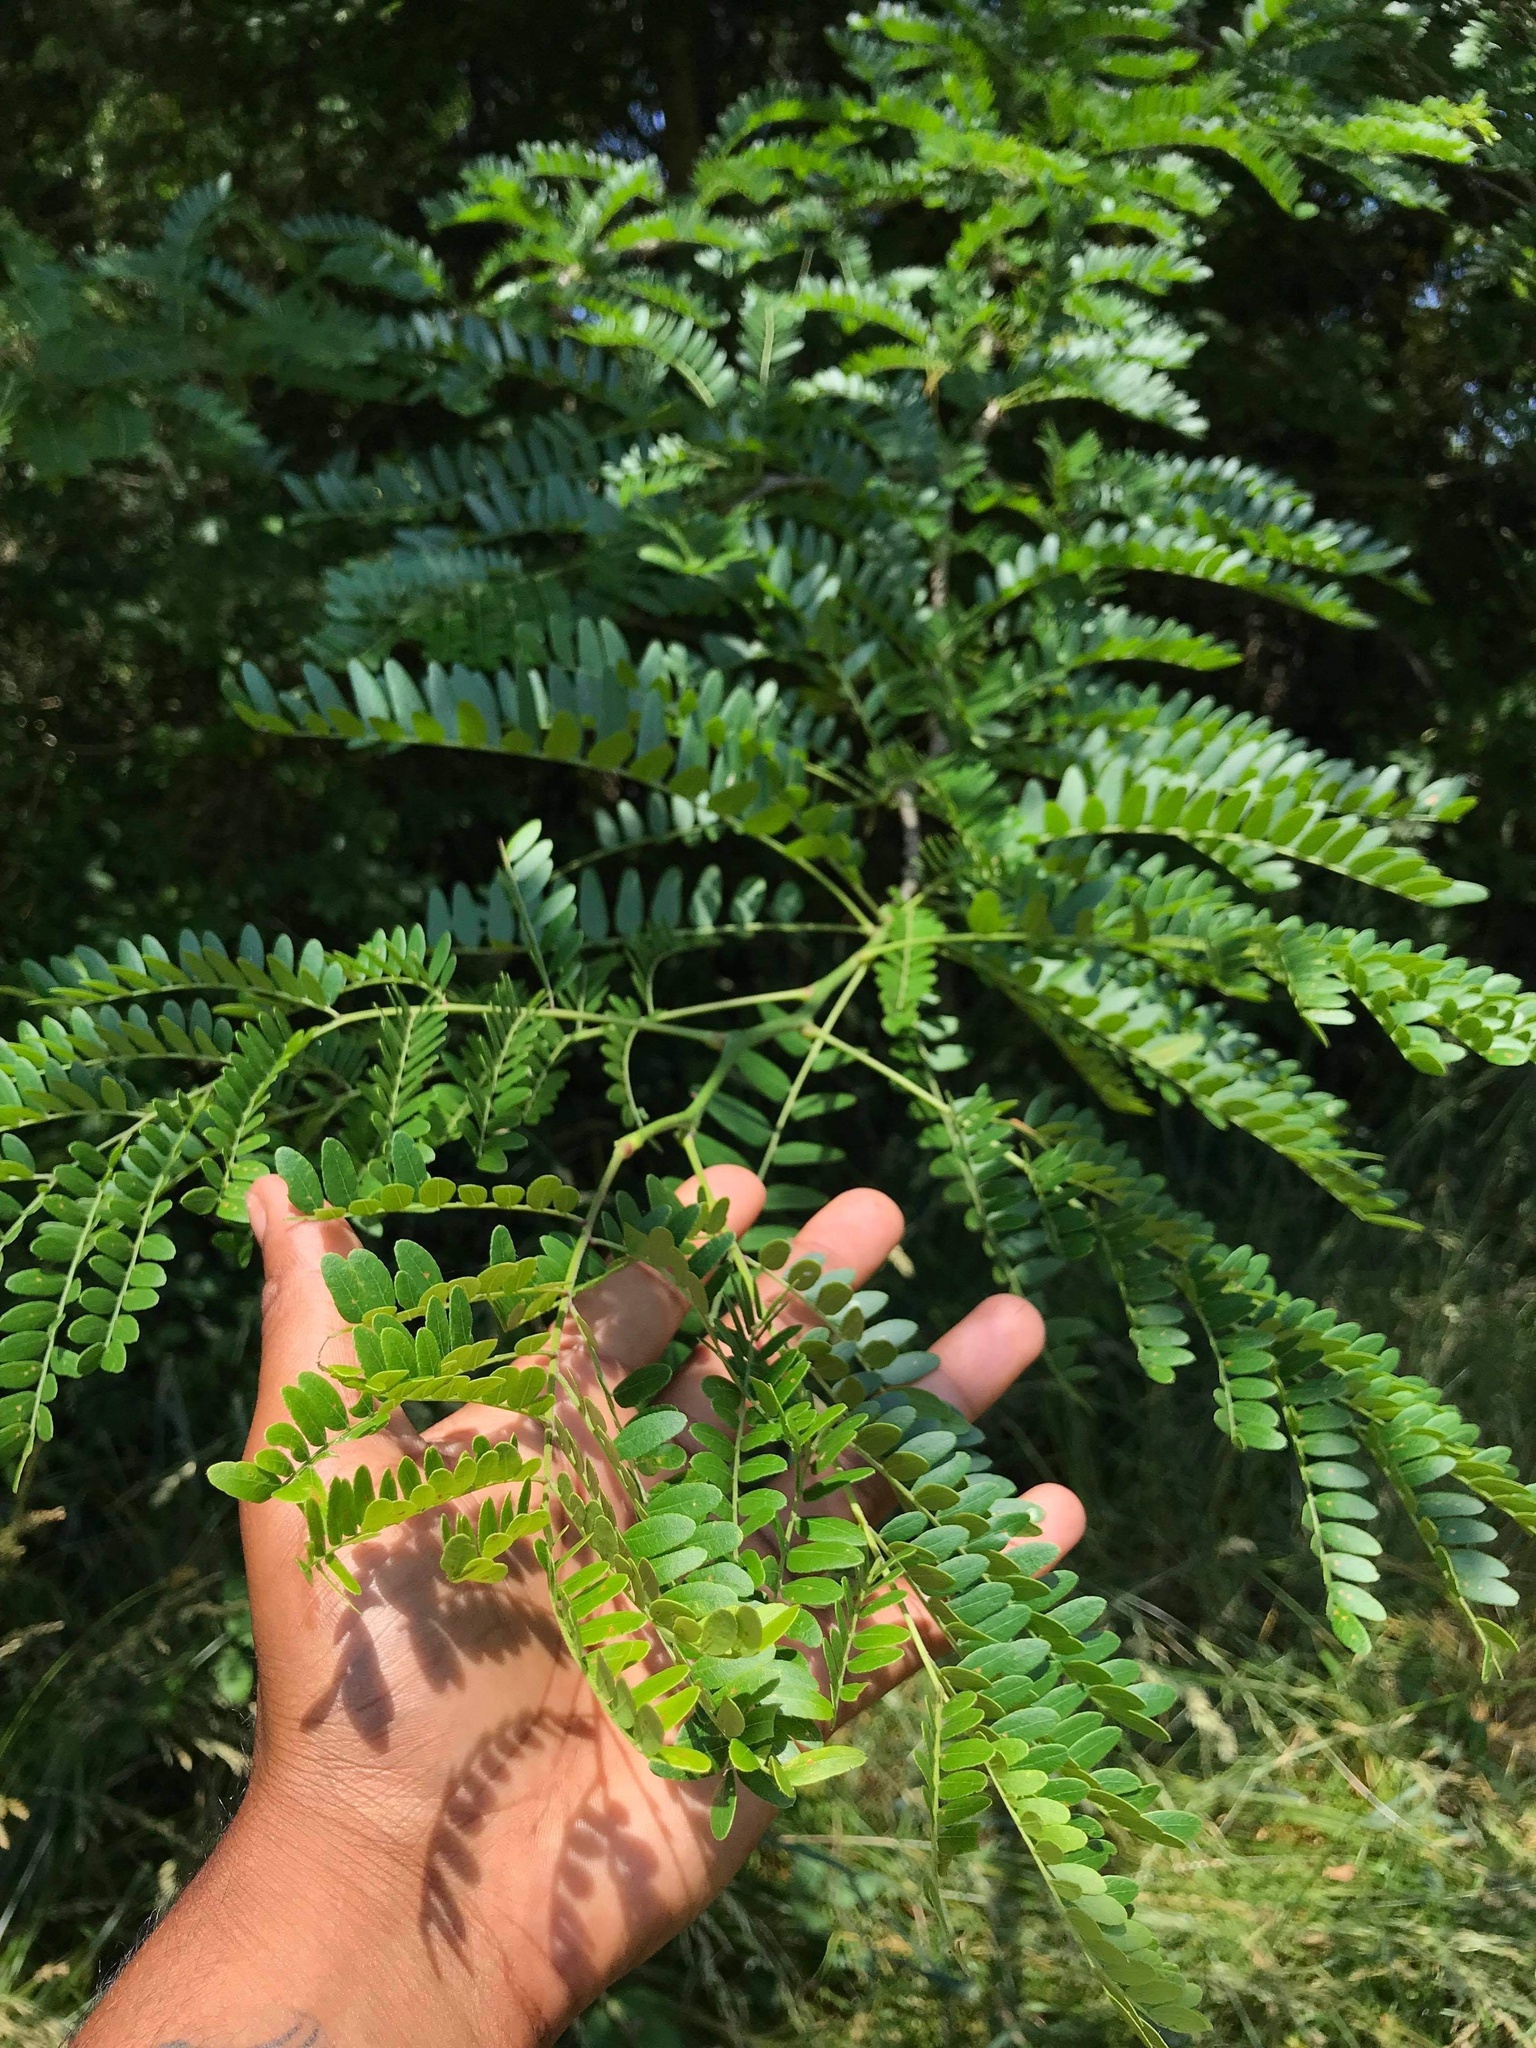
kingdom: Plantae
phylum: Tracheophyta
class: Magnoliopsida
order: Fabales
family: Fabaceae
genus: Gleditsia
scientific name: Gleditsia triacanthos
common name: Common honeylocust
